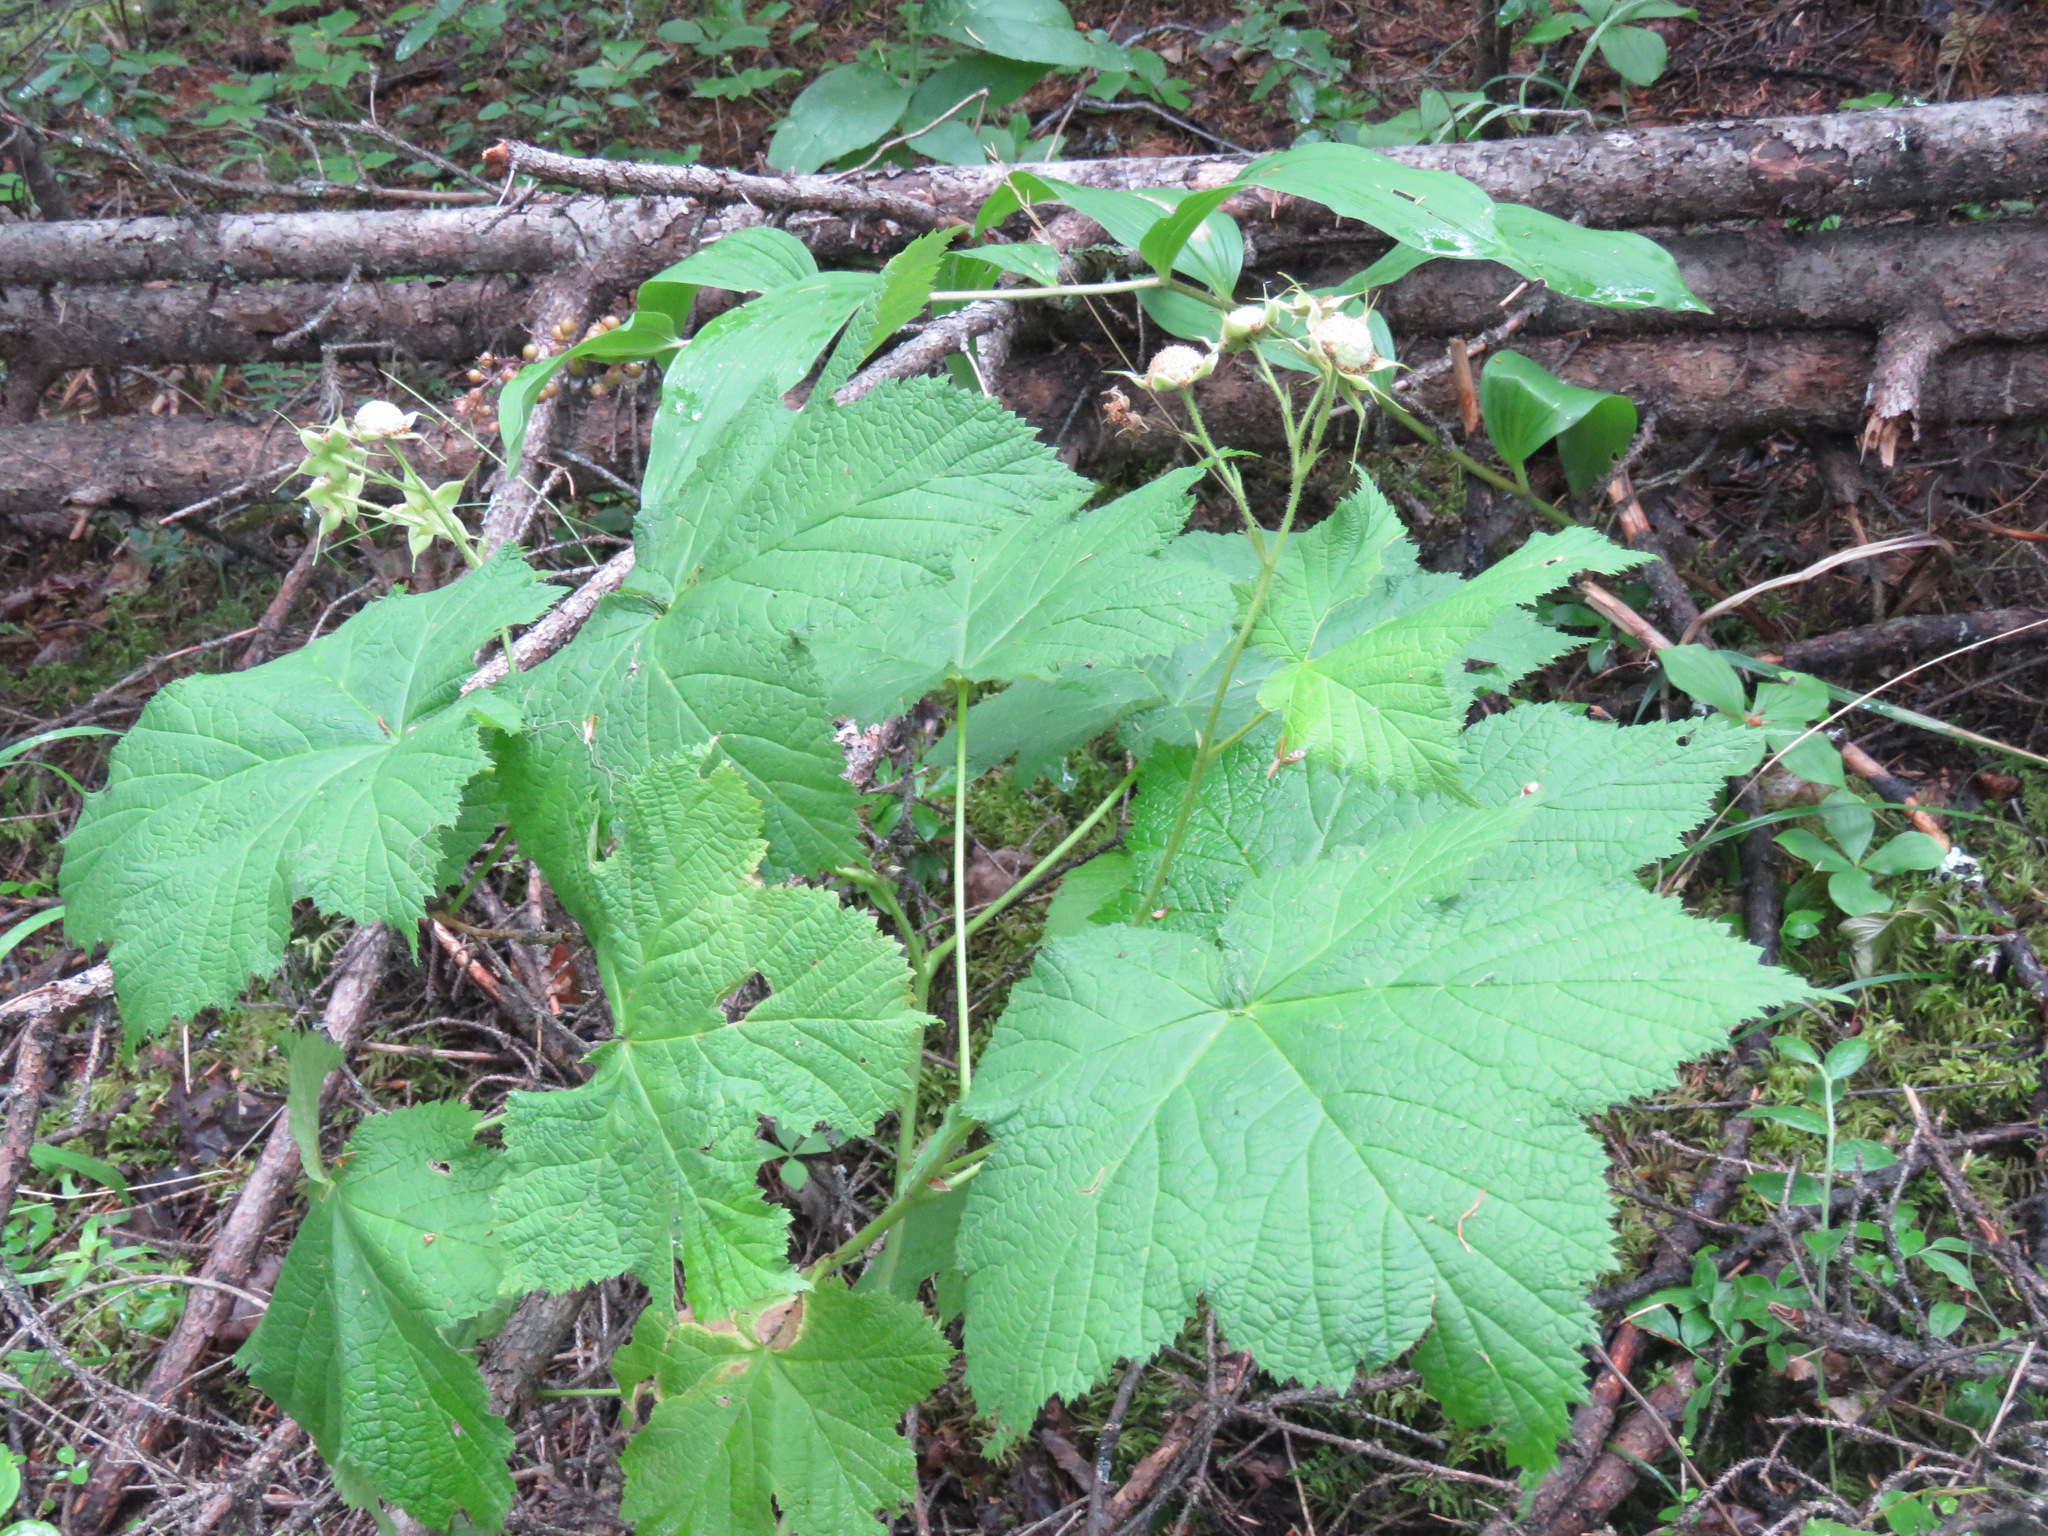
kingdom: Plantae
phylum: Tracheophyta
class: Magnoliopsida
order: Rosales
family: Rosaceae
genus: Rubus
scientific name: Rubus parviflorus
